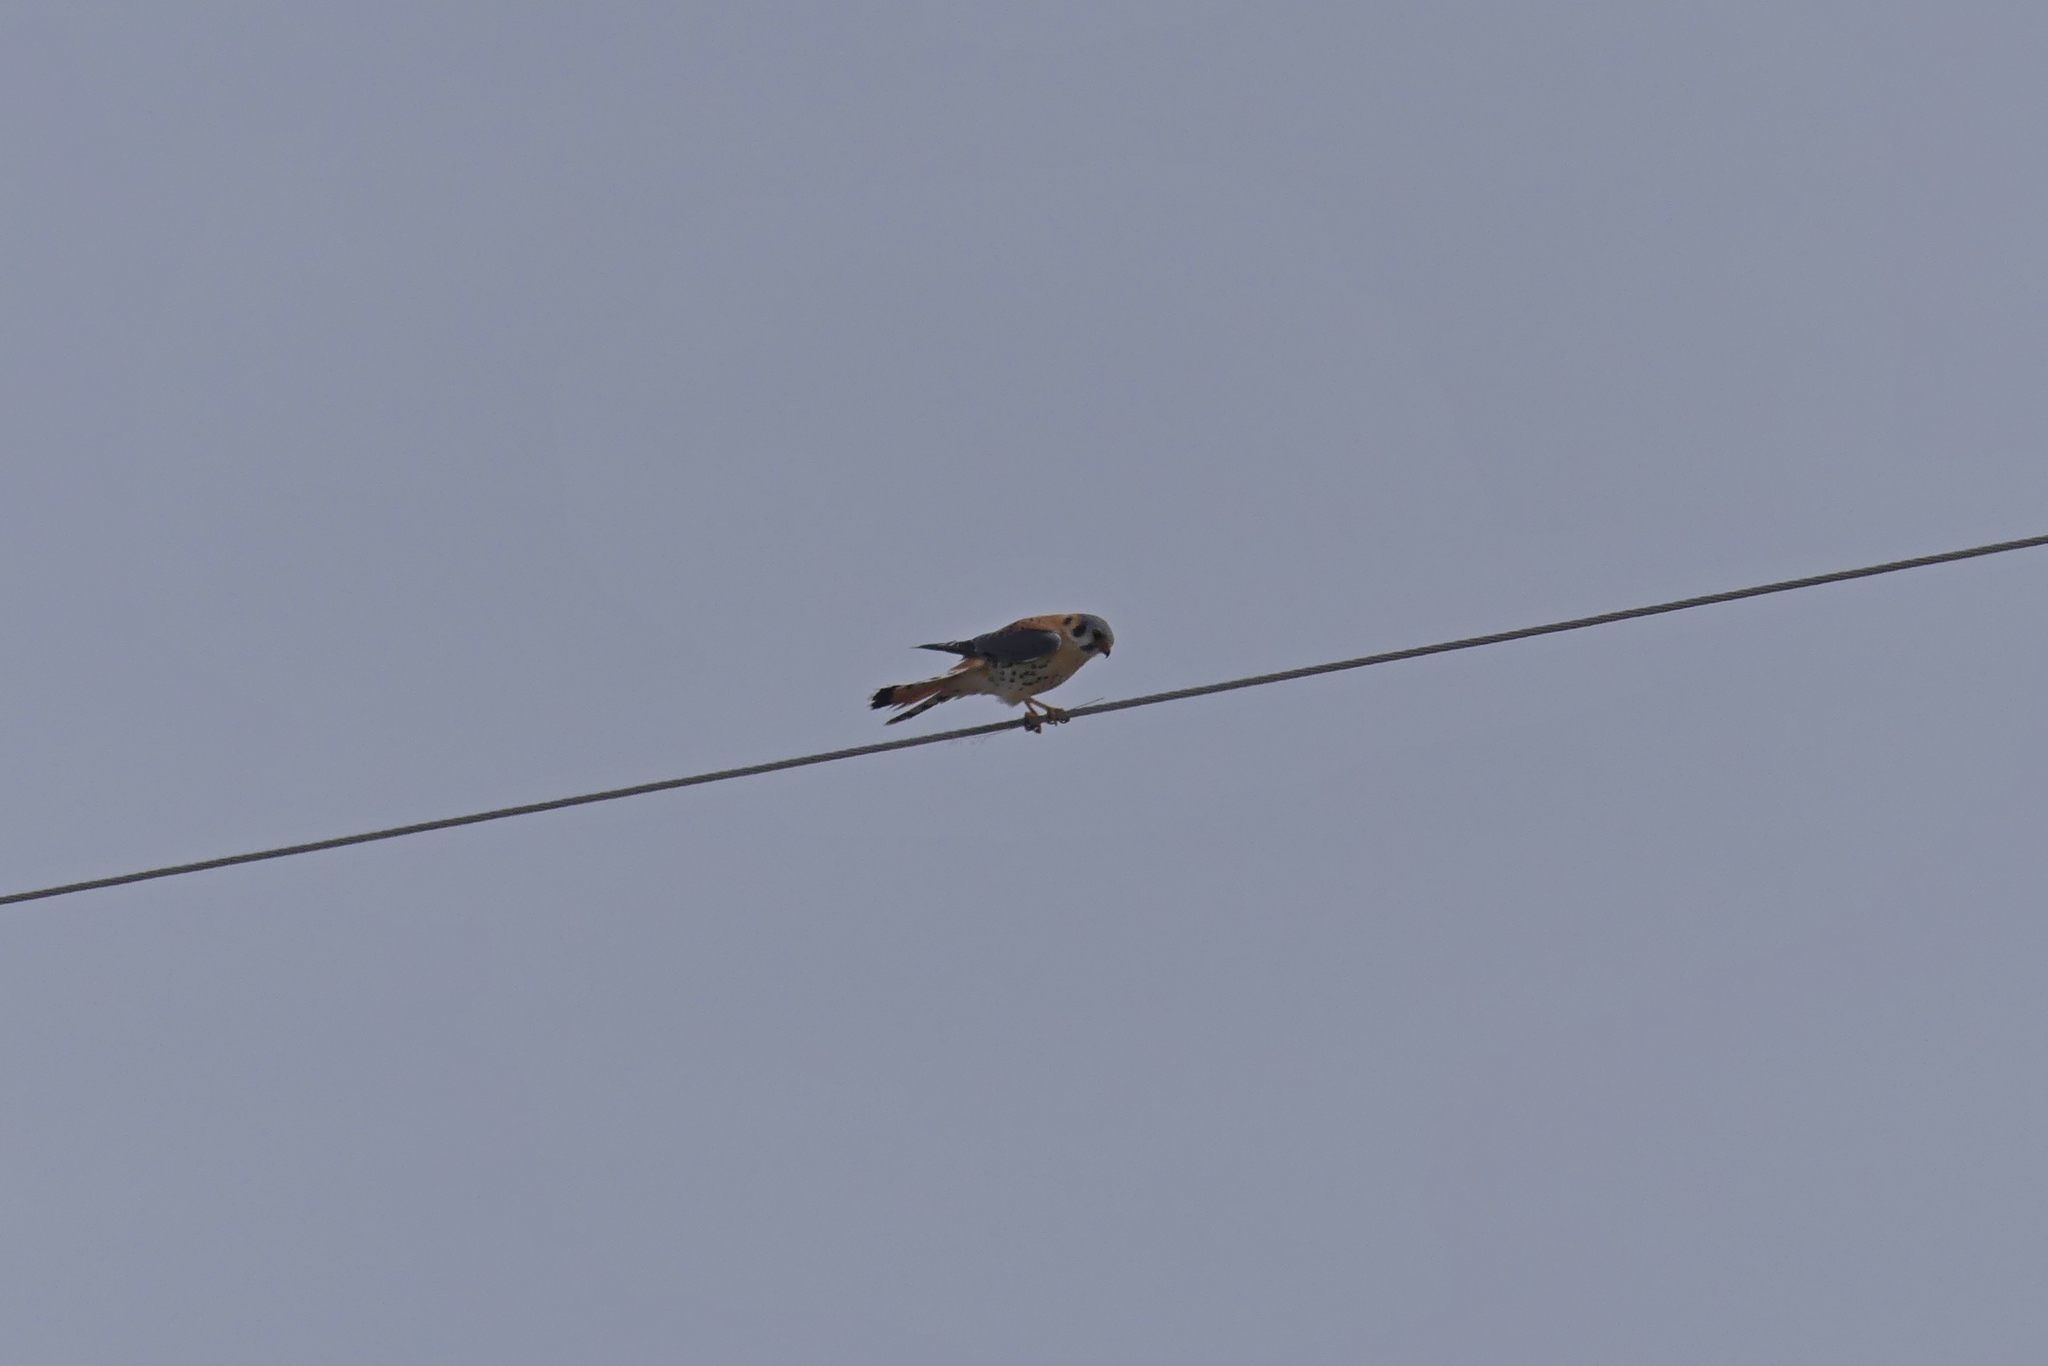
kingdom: Animalia
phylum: Chordata
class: Aves
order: Falconiformes
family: Falconidae
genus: Falco
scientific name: Falco sparverius
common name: American kestrel
